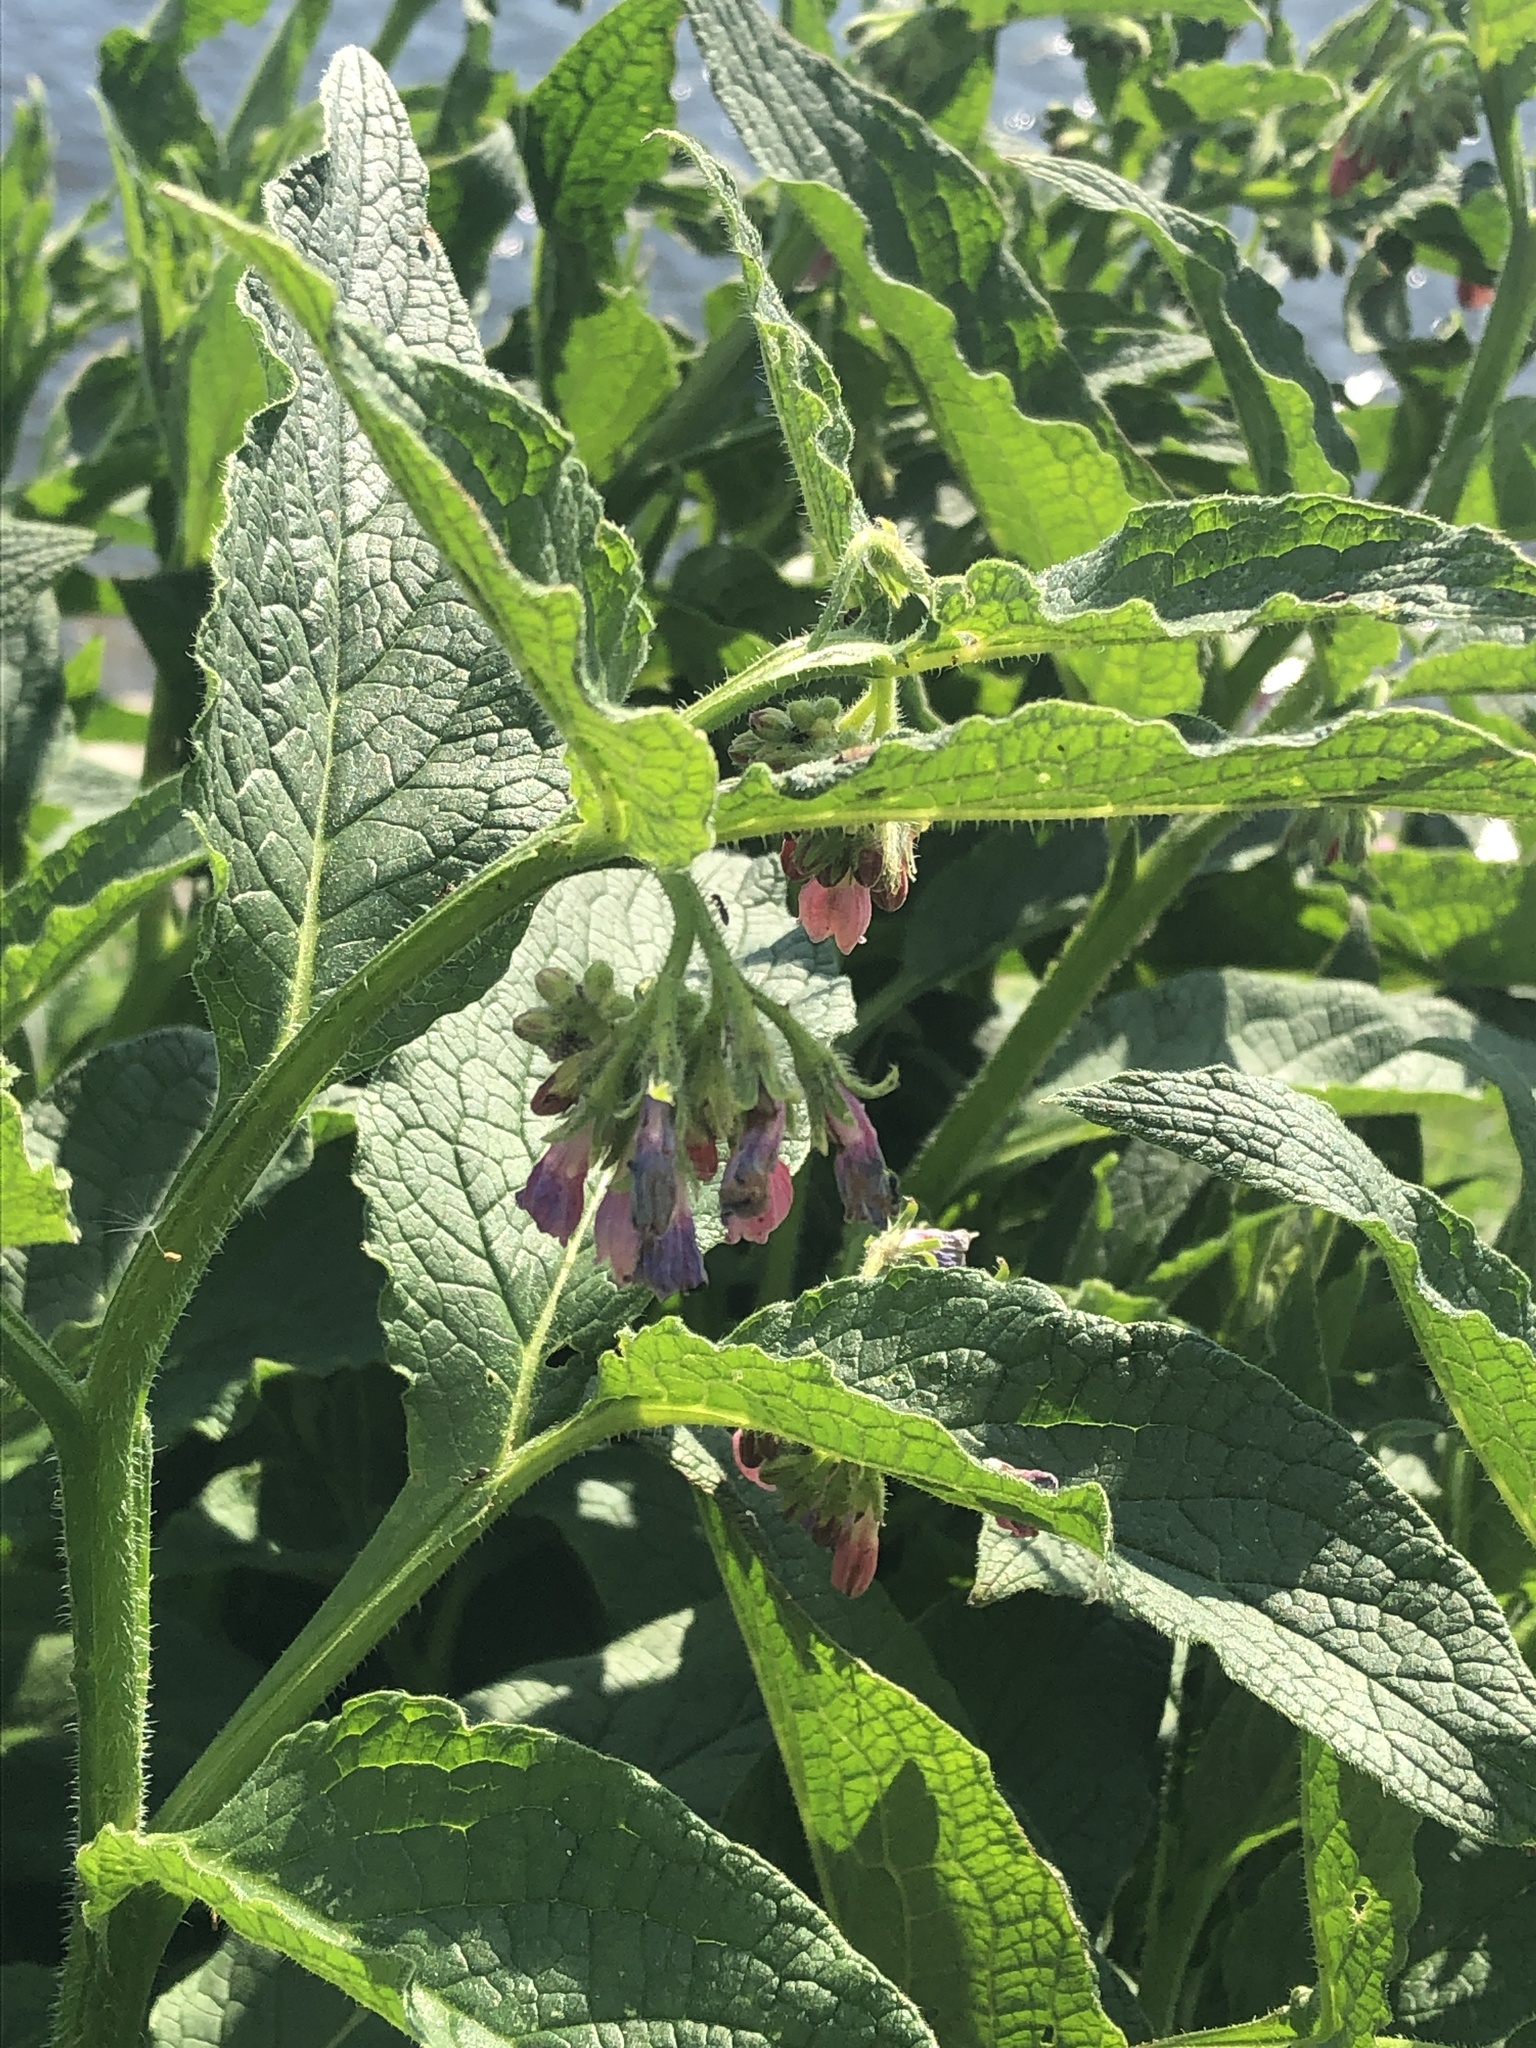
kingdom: Plantae
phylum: Tracheophyta
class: Magnoliopsida
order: Boraginales
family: Boraginaceae
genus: Symphytum
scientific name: Symphytum officinale
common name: Common comfrey
